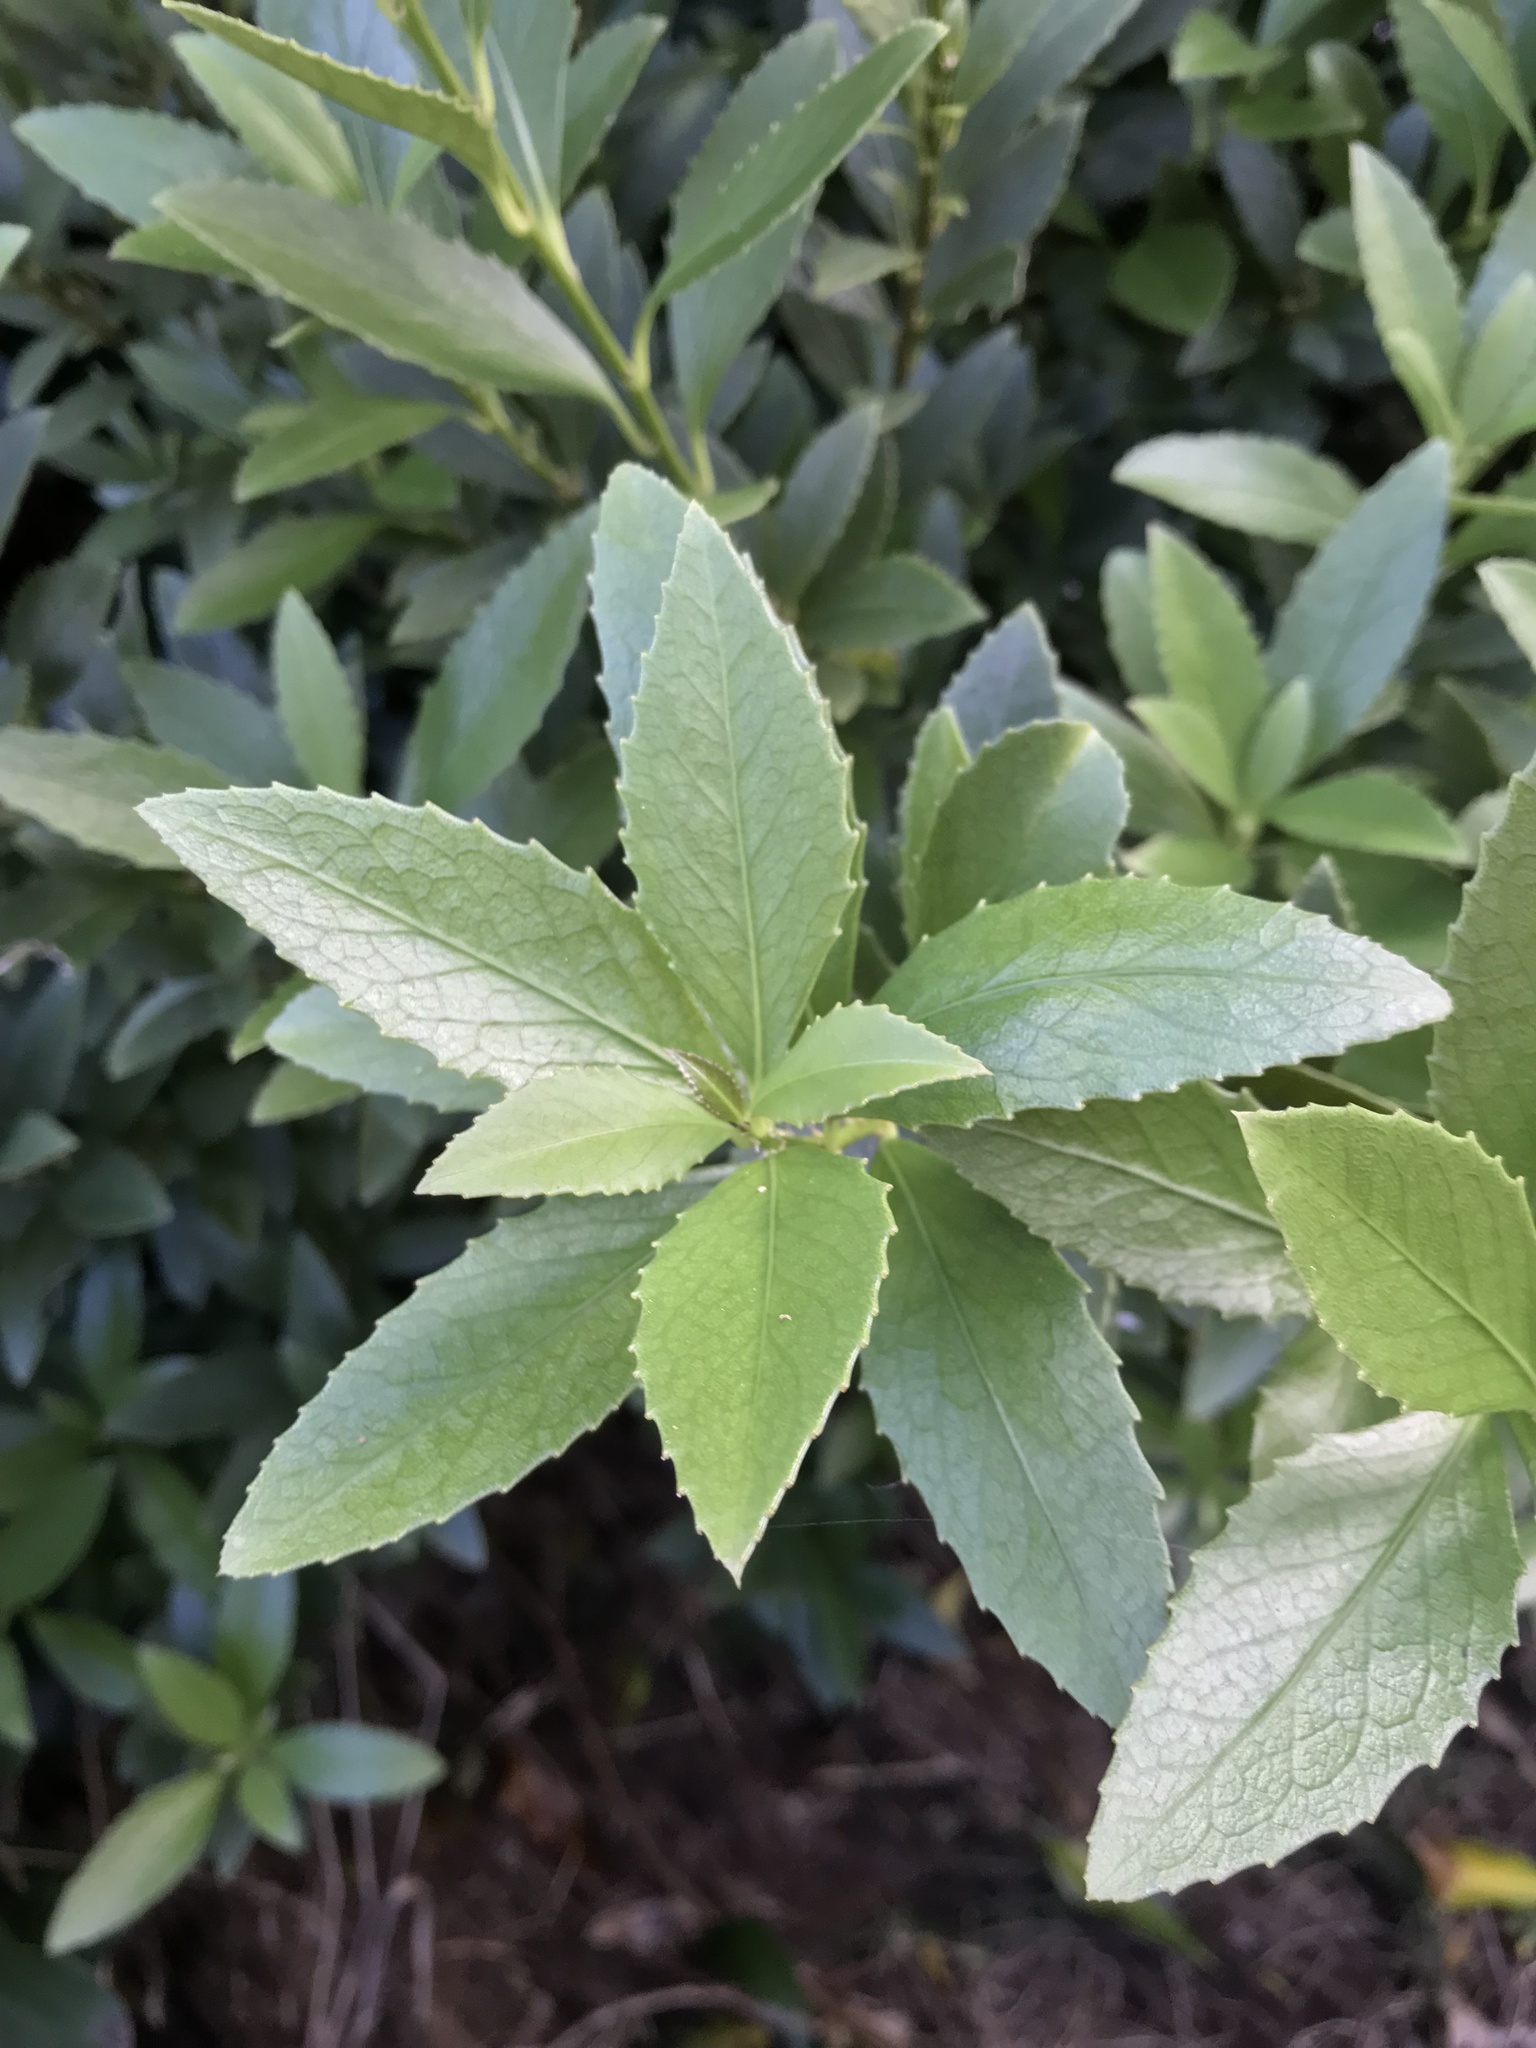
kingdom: Plantae
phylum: Tracheophyta
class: Magnoliopsida
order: Malpighiales
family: Violaceae
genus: Melicytus
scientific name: Melicytus chathamicus
